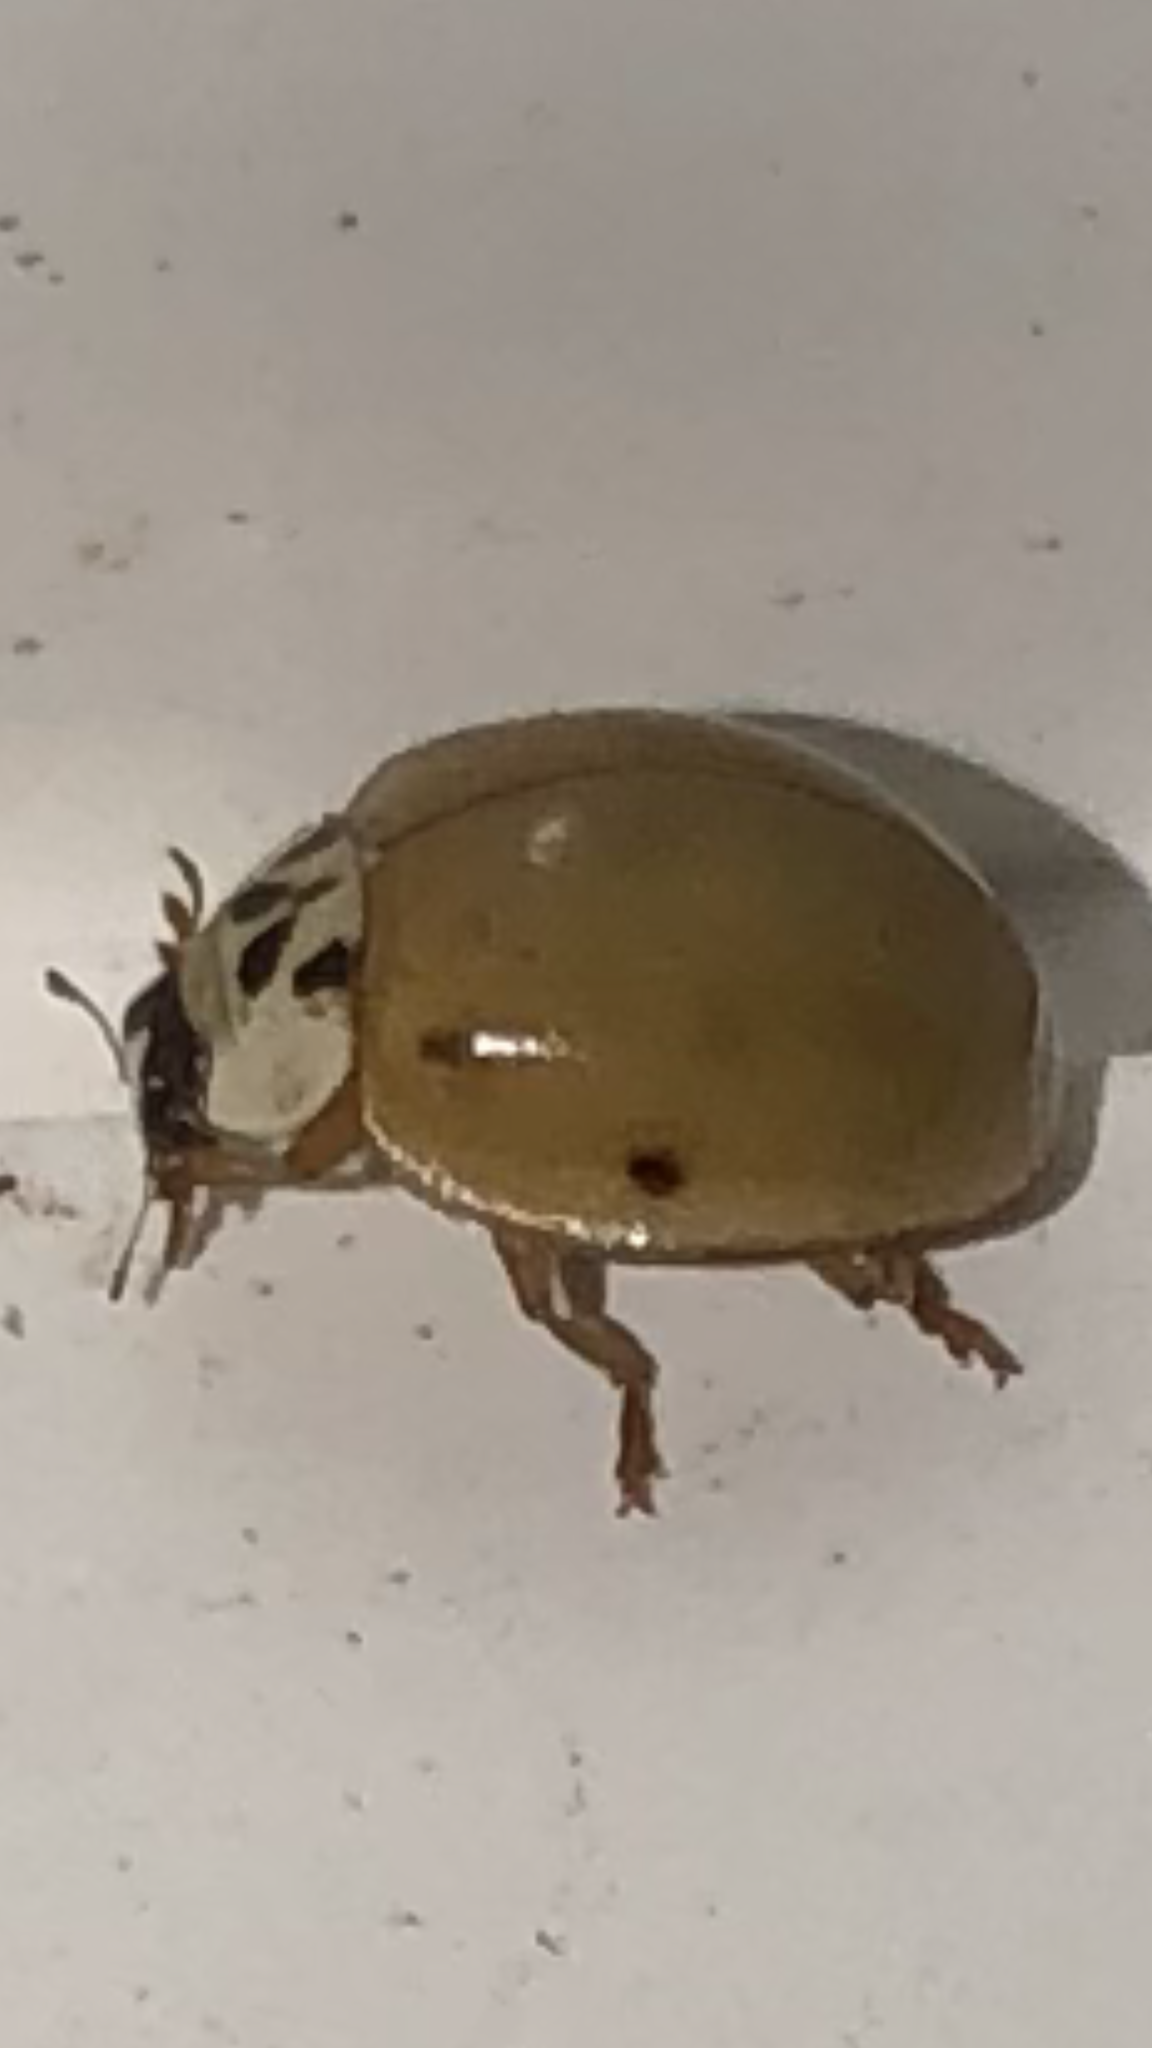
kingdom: Animalia
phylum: Arthropoda
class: Insecta
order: Coleoptera
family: Coccinellidae
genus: Harmonia
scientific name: Harmonia axyridis
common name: Harlequin ladybird
